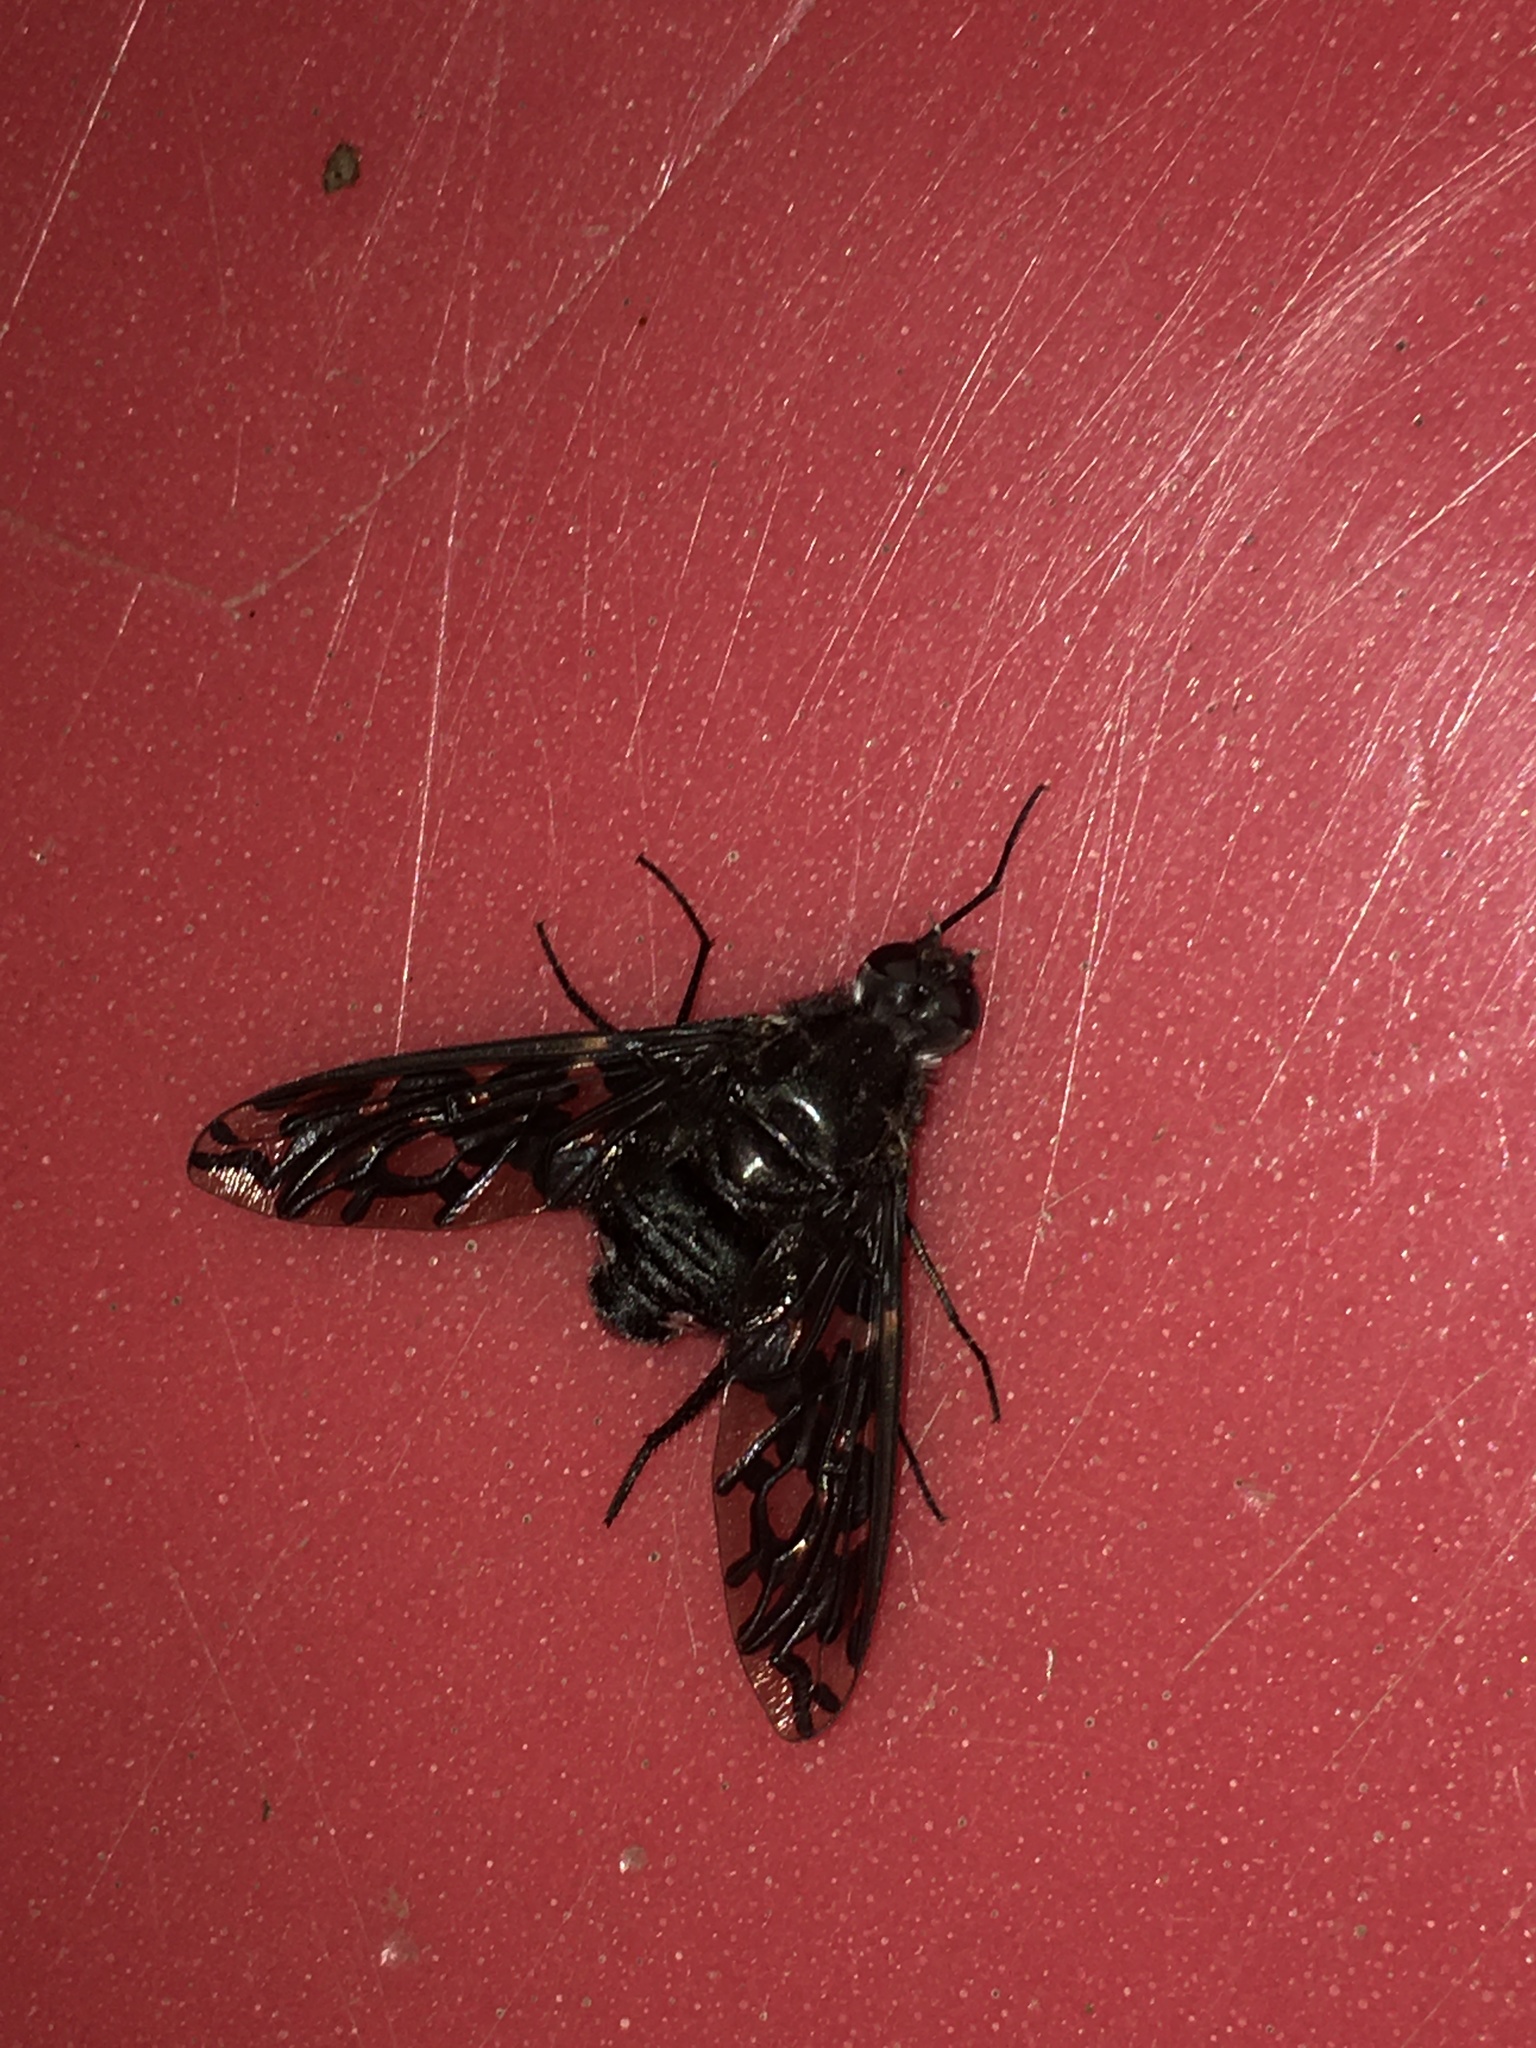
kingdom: Animalia
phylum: Arthropoda
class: Insecta
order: Diptera
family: Bombyliidae
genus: Xenox
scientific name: Xenox tigrinus
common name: Tiger bee fly
